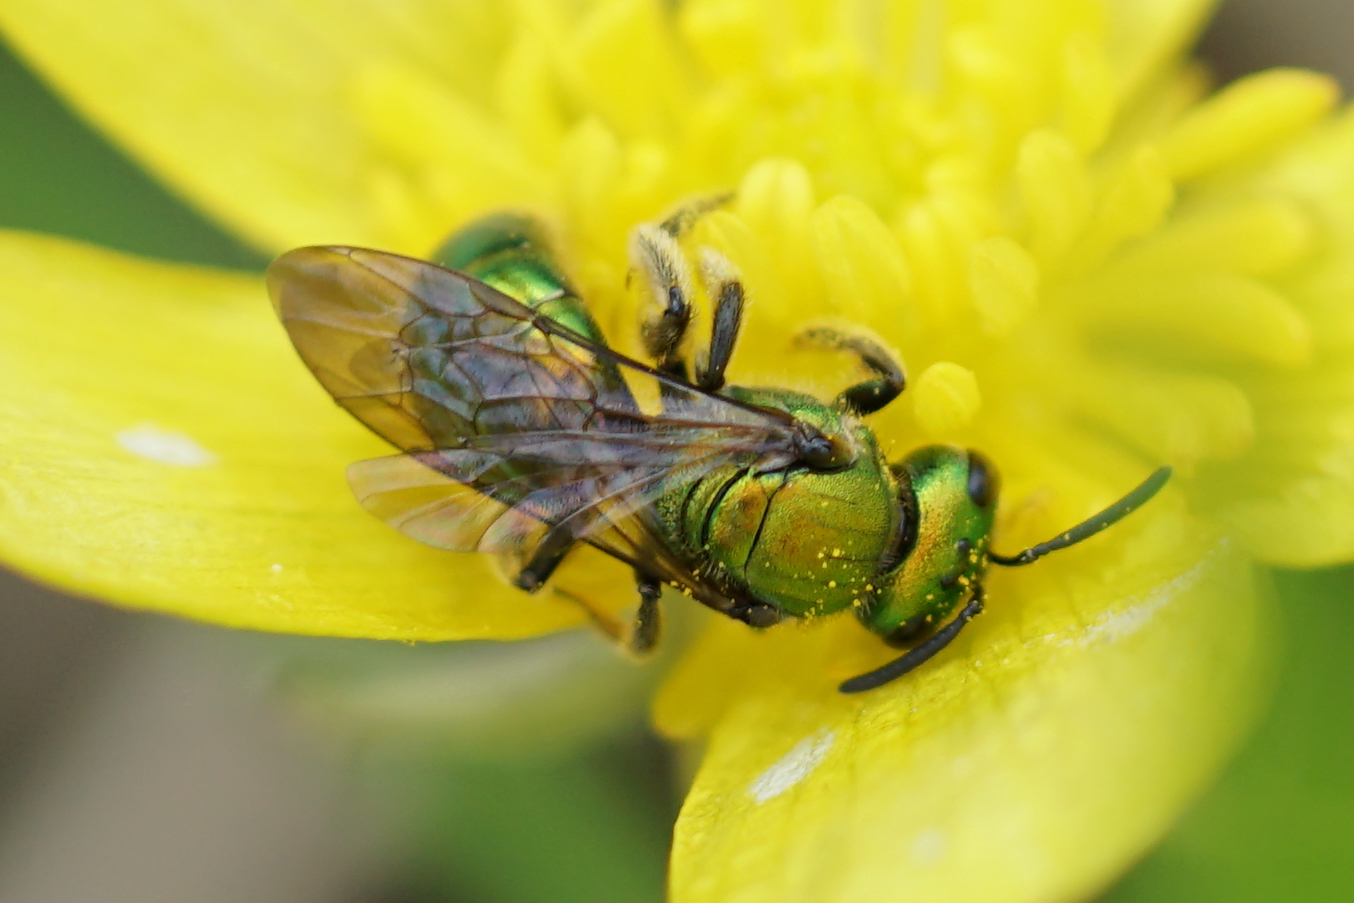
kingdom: Animalia
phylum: Arthropoda
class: Insecta
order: Hymenoptera
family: Halictidae
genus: Augochlora
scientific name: Augochlora pura
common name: Pure green sweat bee
